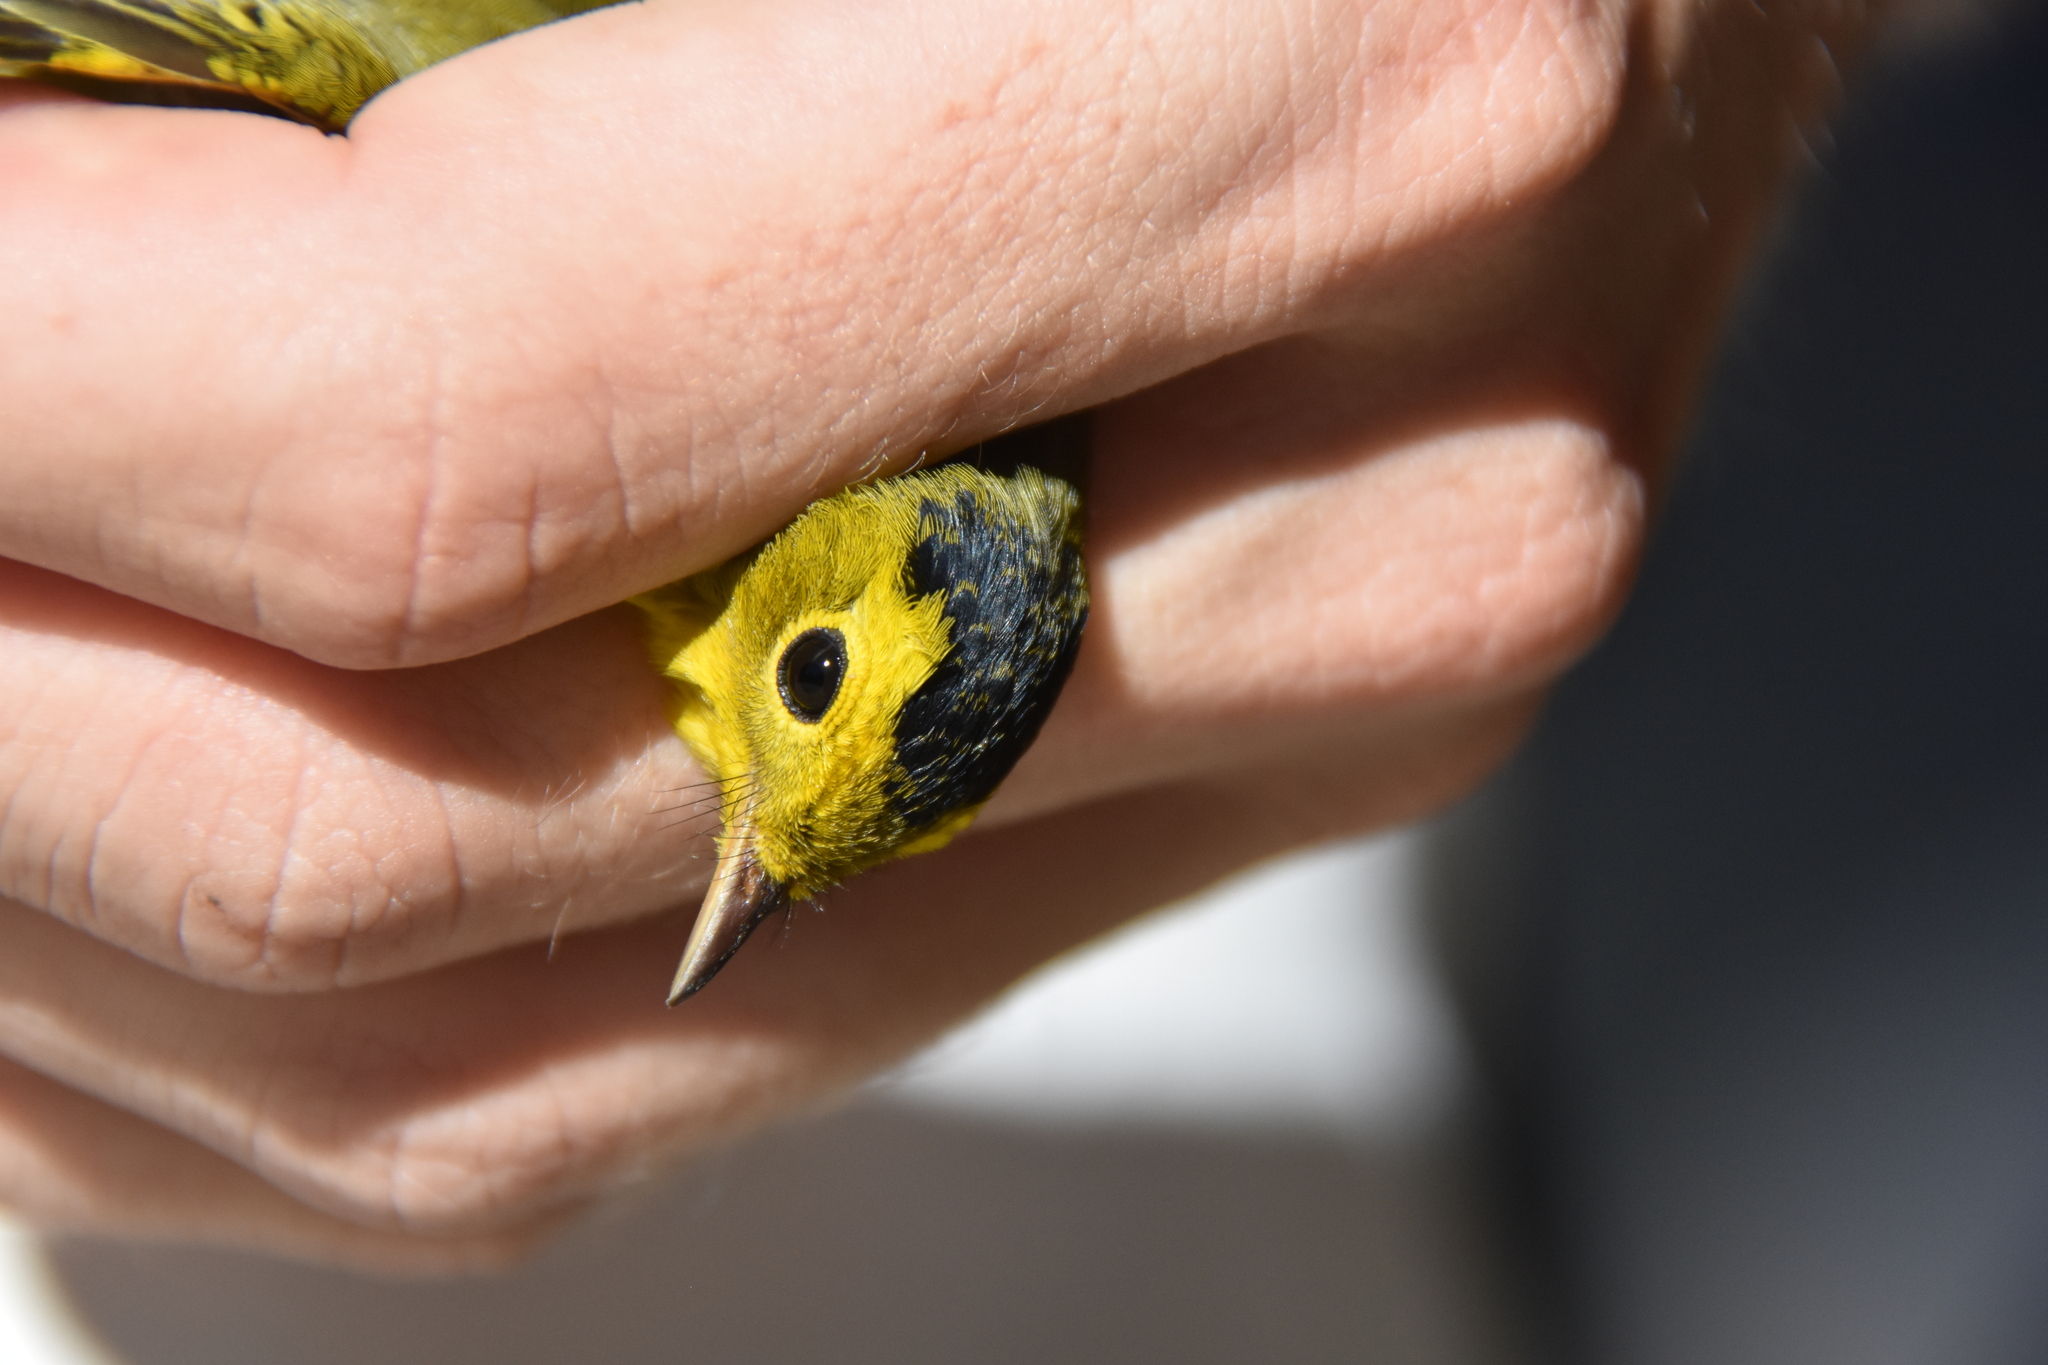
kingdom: Animalia
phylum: Chordata
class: Aves
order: Passeriformes
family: Parulidae
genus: Cardellina
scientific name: Cardellina pusilla
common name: Wilson's warbler
